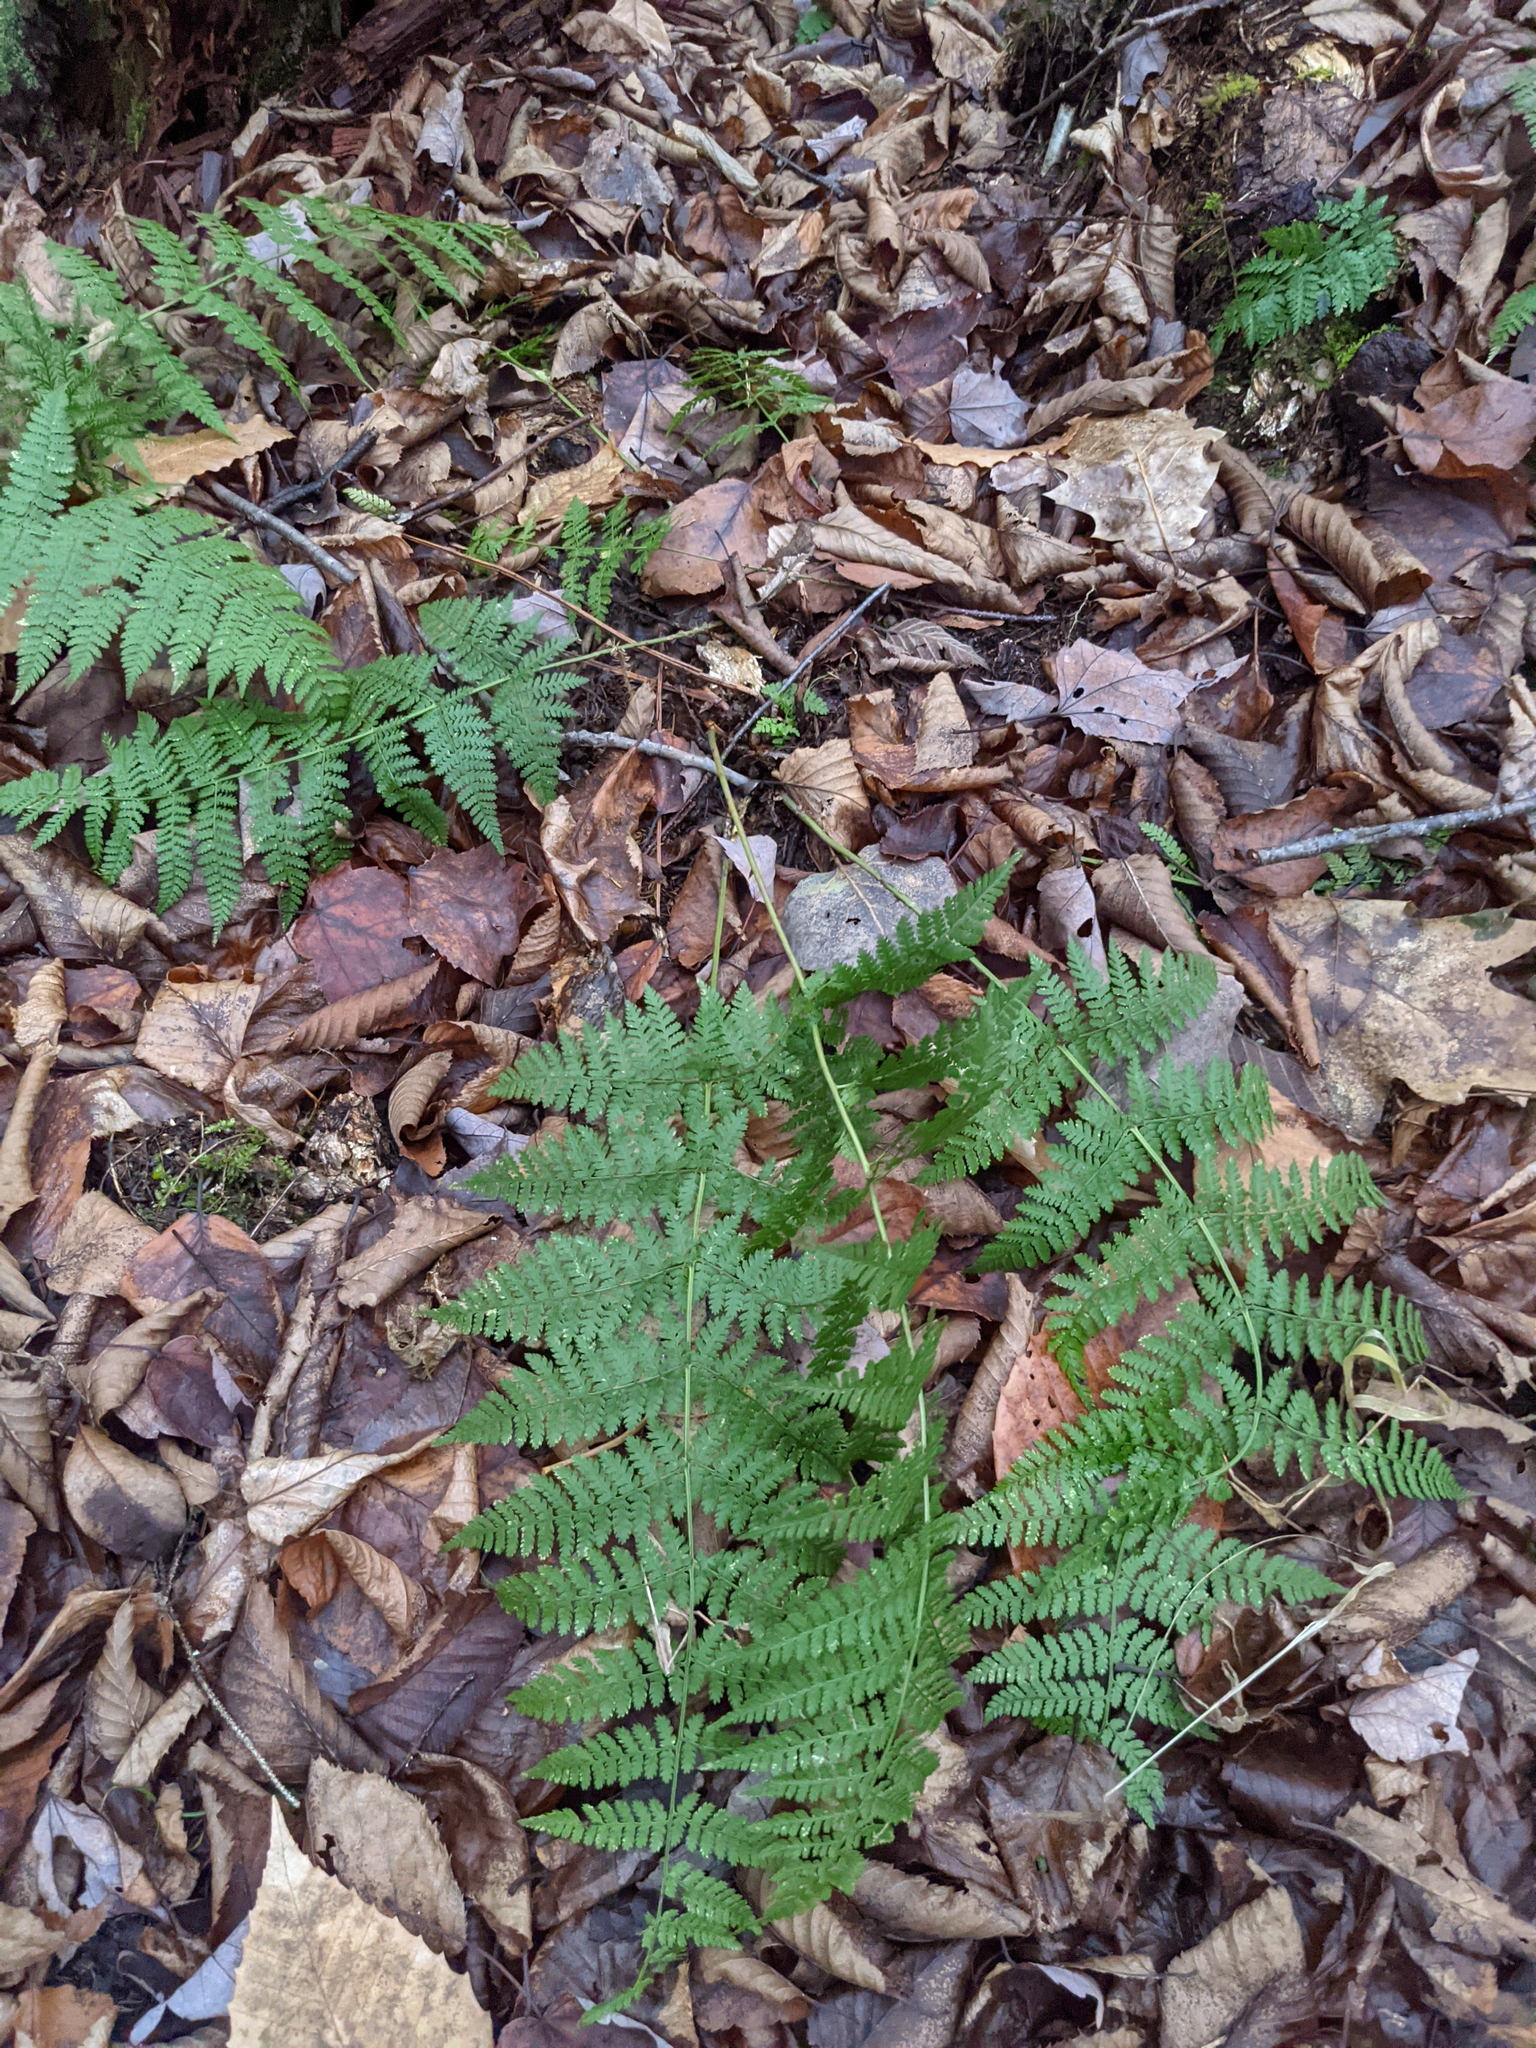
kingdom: Plantae
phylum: Tracheophyta
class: Polypodiopsida
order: Polypodiales
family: Dryopteridaceae
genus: Dryopteris
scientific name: Dryopteris intermedia
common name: Evergreen wood fern
